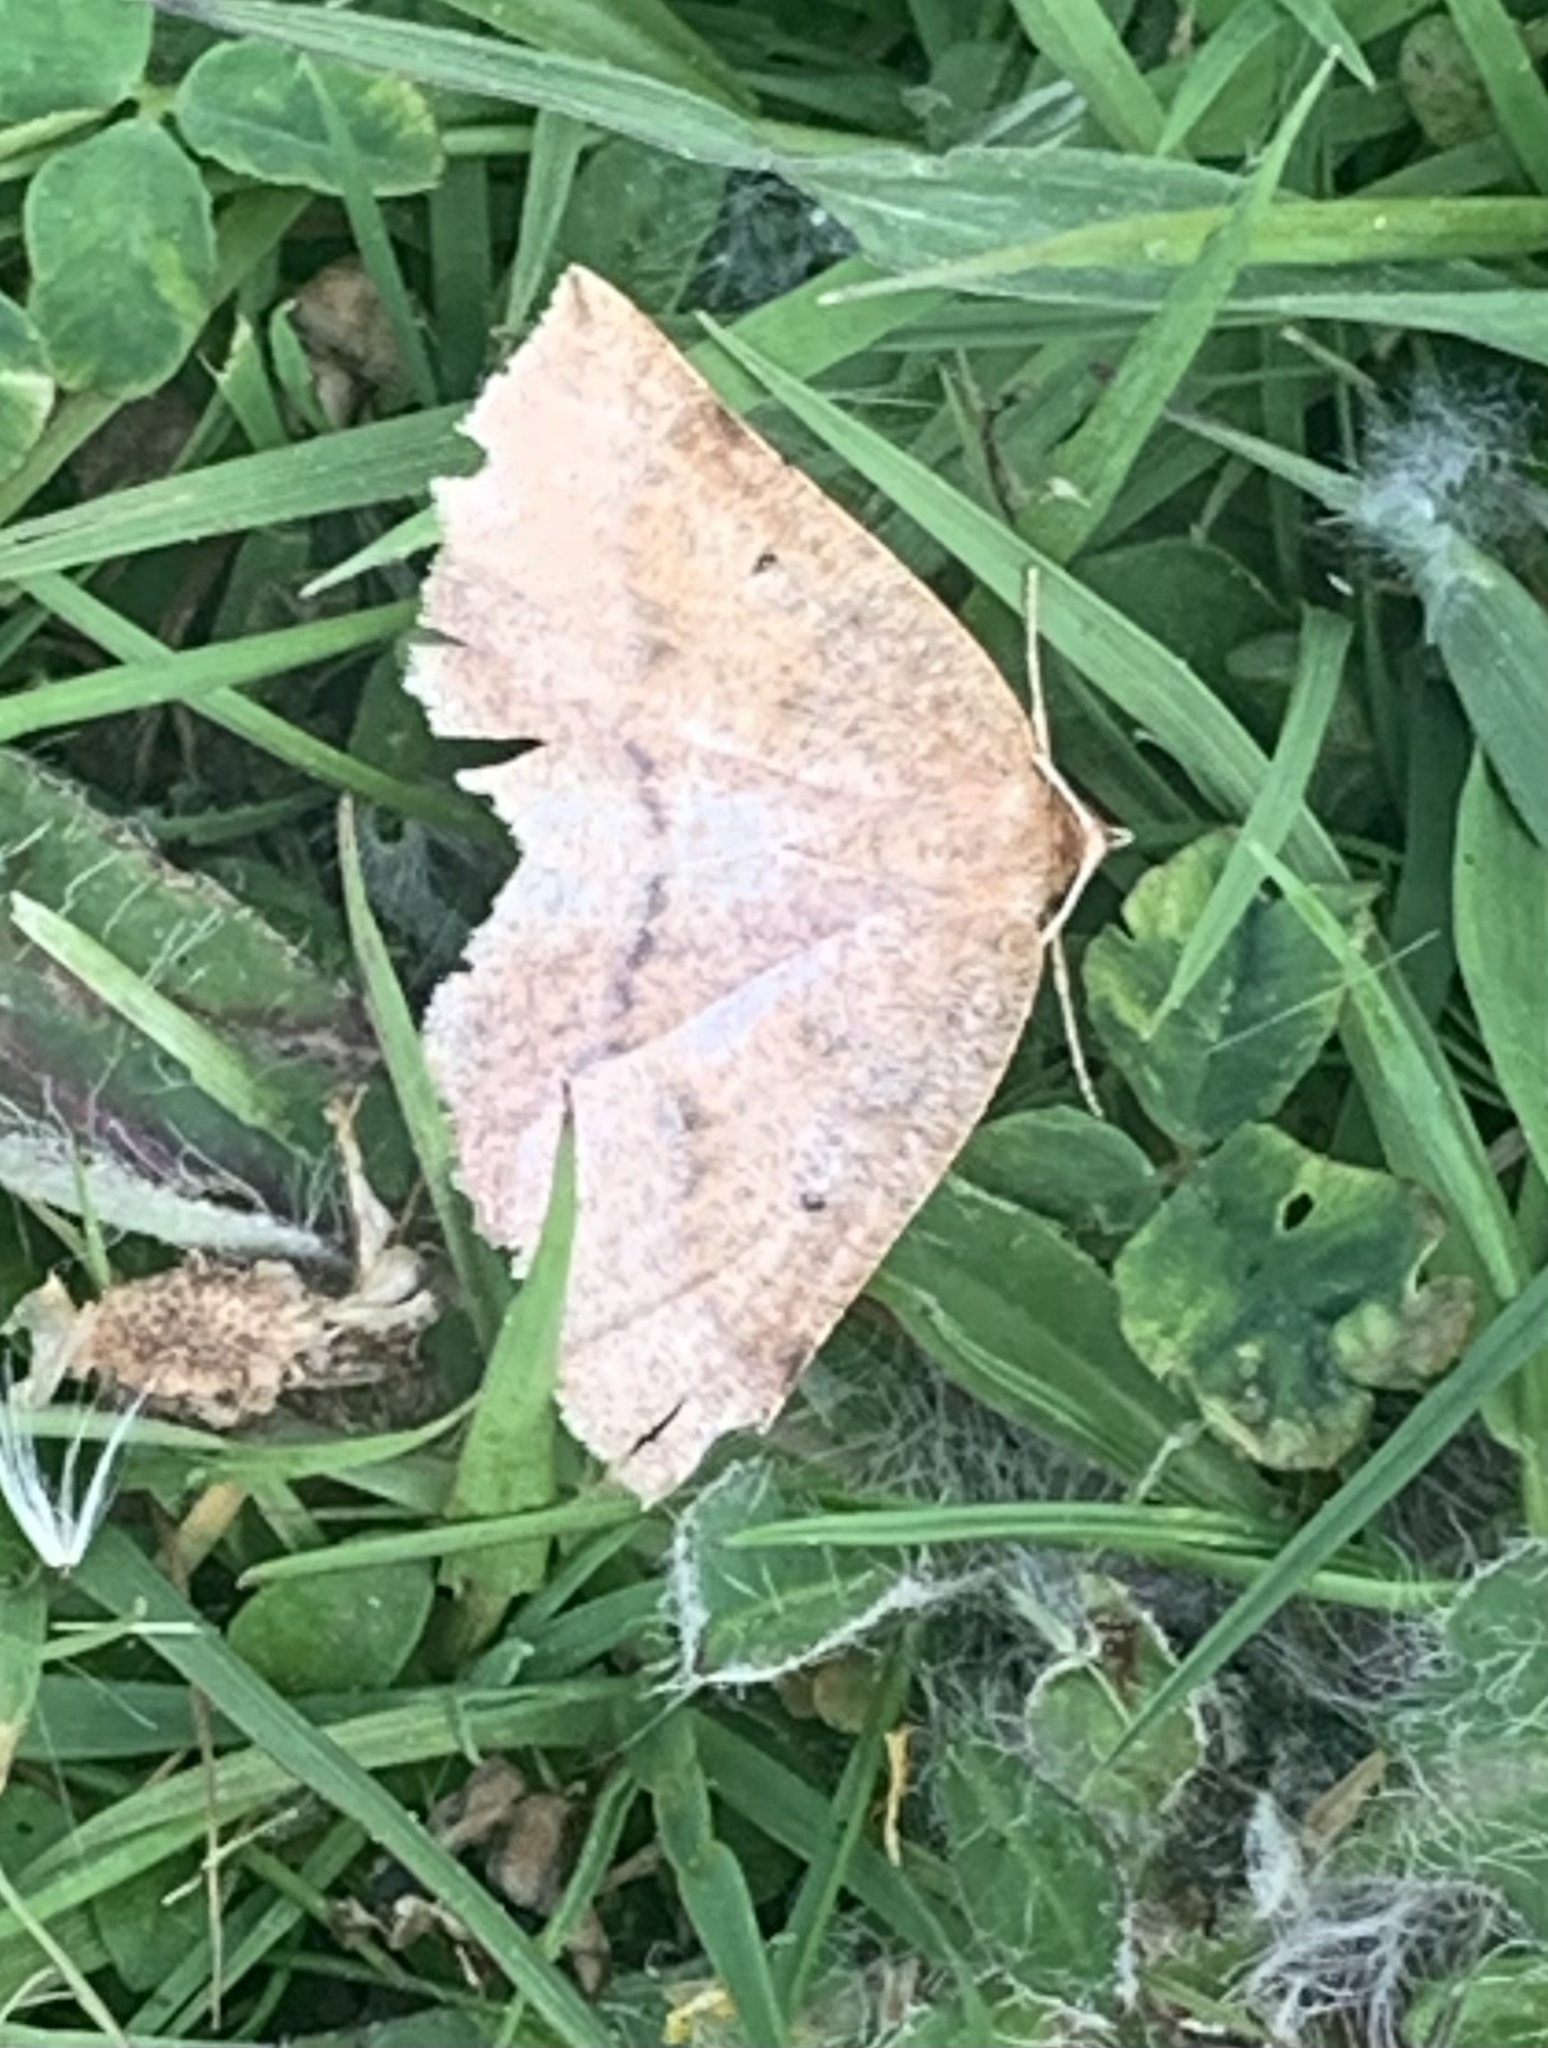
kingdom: Animalia
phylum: Arthropoda
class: Insecta
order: Lepidoptera
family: Geometridae
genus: Metarranthis
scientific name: Metarranthis duaria
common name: Ruddy metarranthis moth
